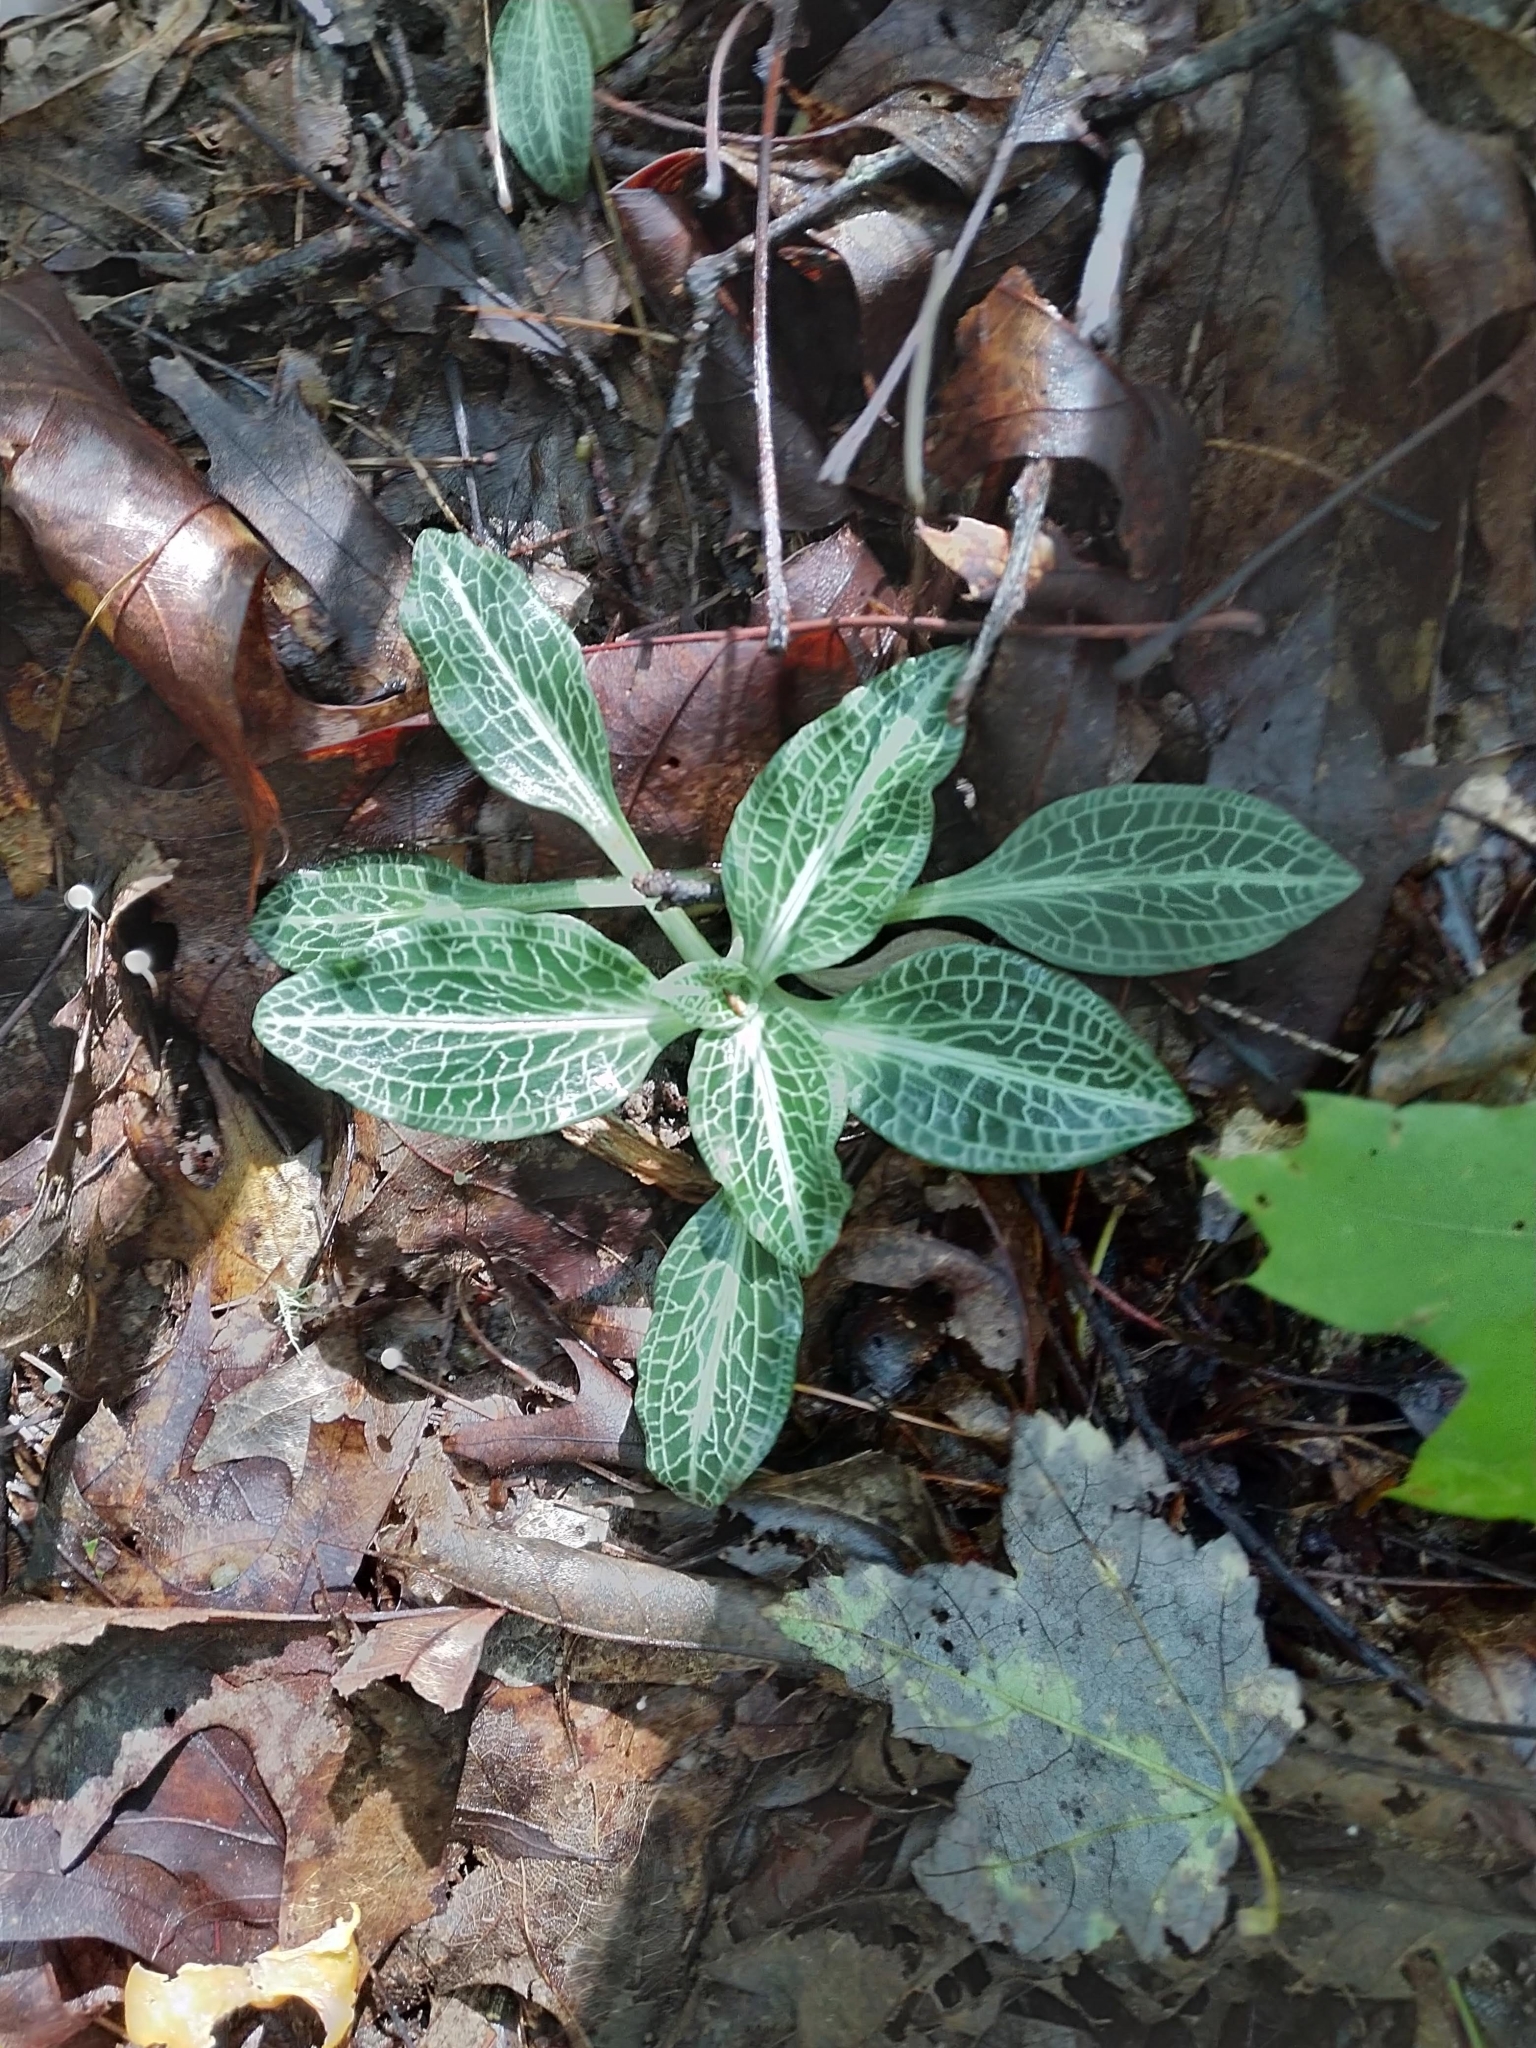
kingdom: Plantae
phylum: Tracheophyta
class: Liliopsida
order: Asparagales
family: Orchidaceae
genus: Goodyera
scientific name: Goodyera pubescens
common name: Downy rattlesnake-plantain
